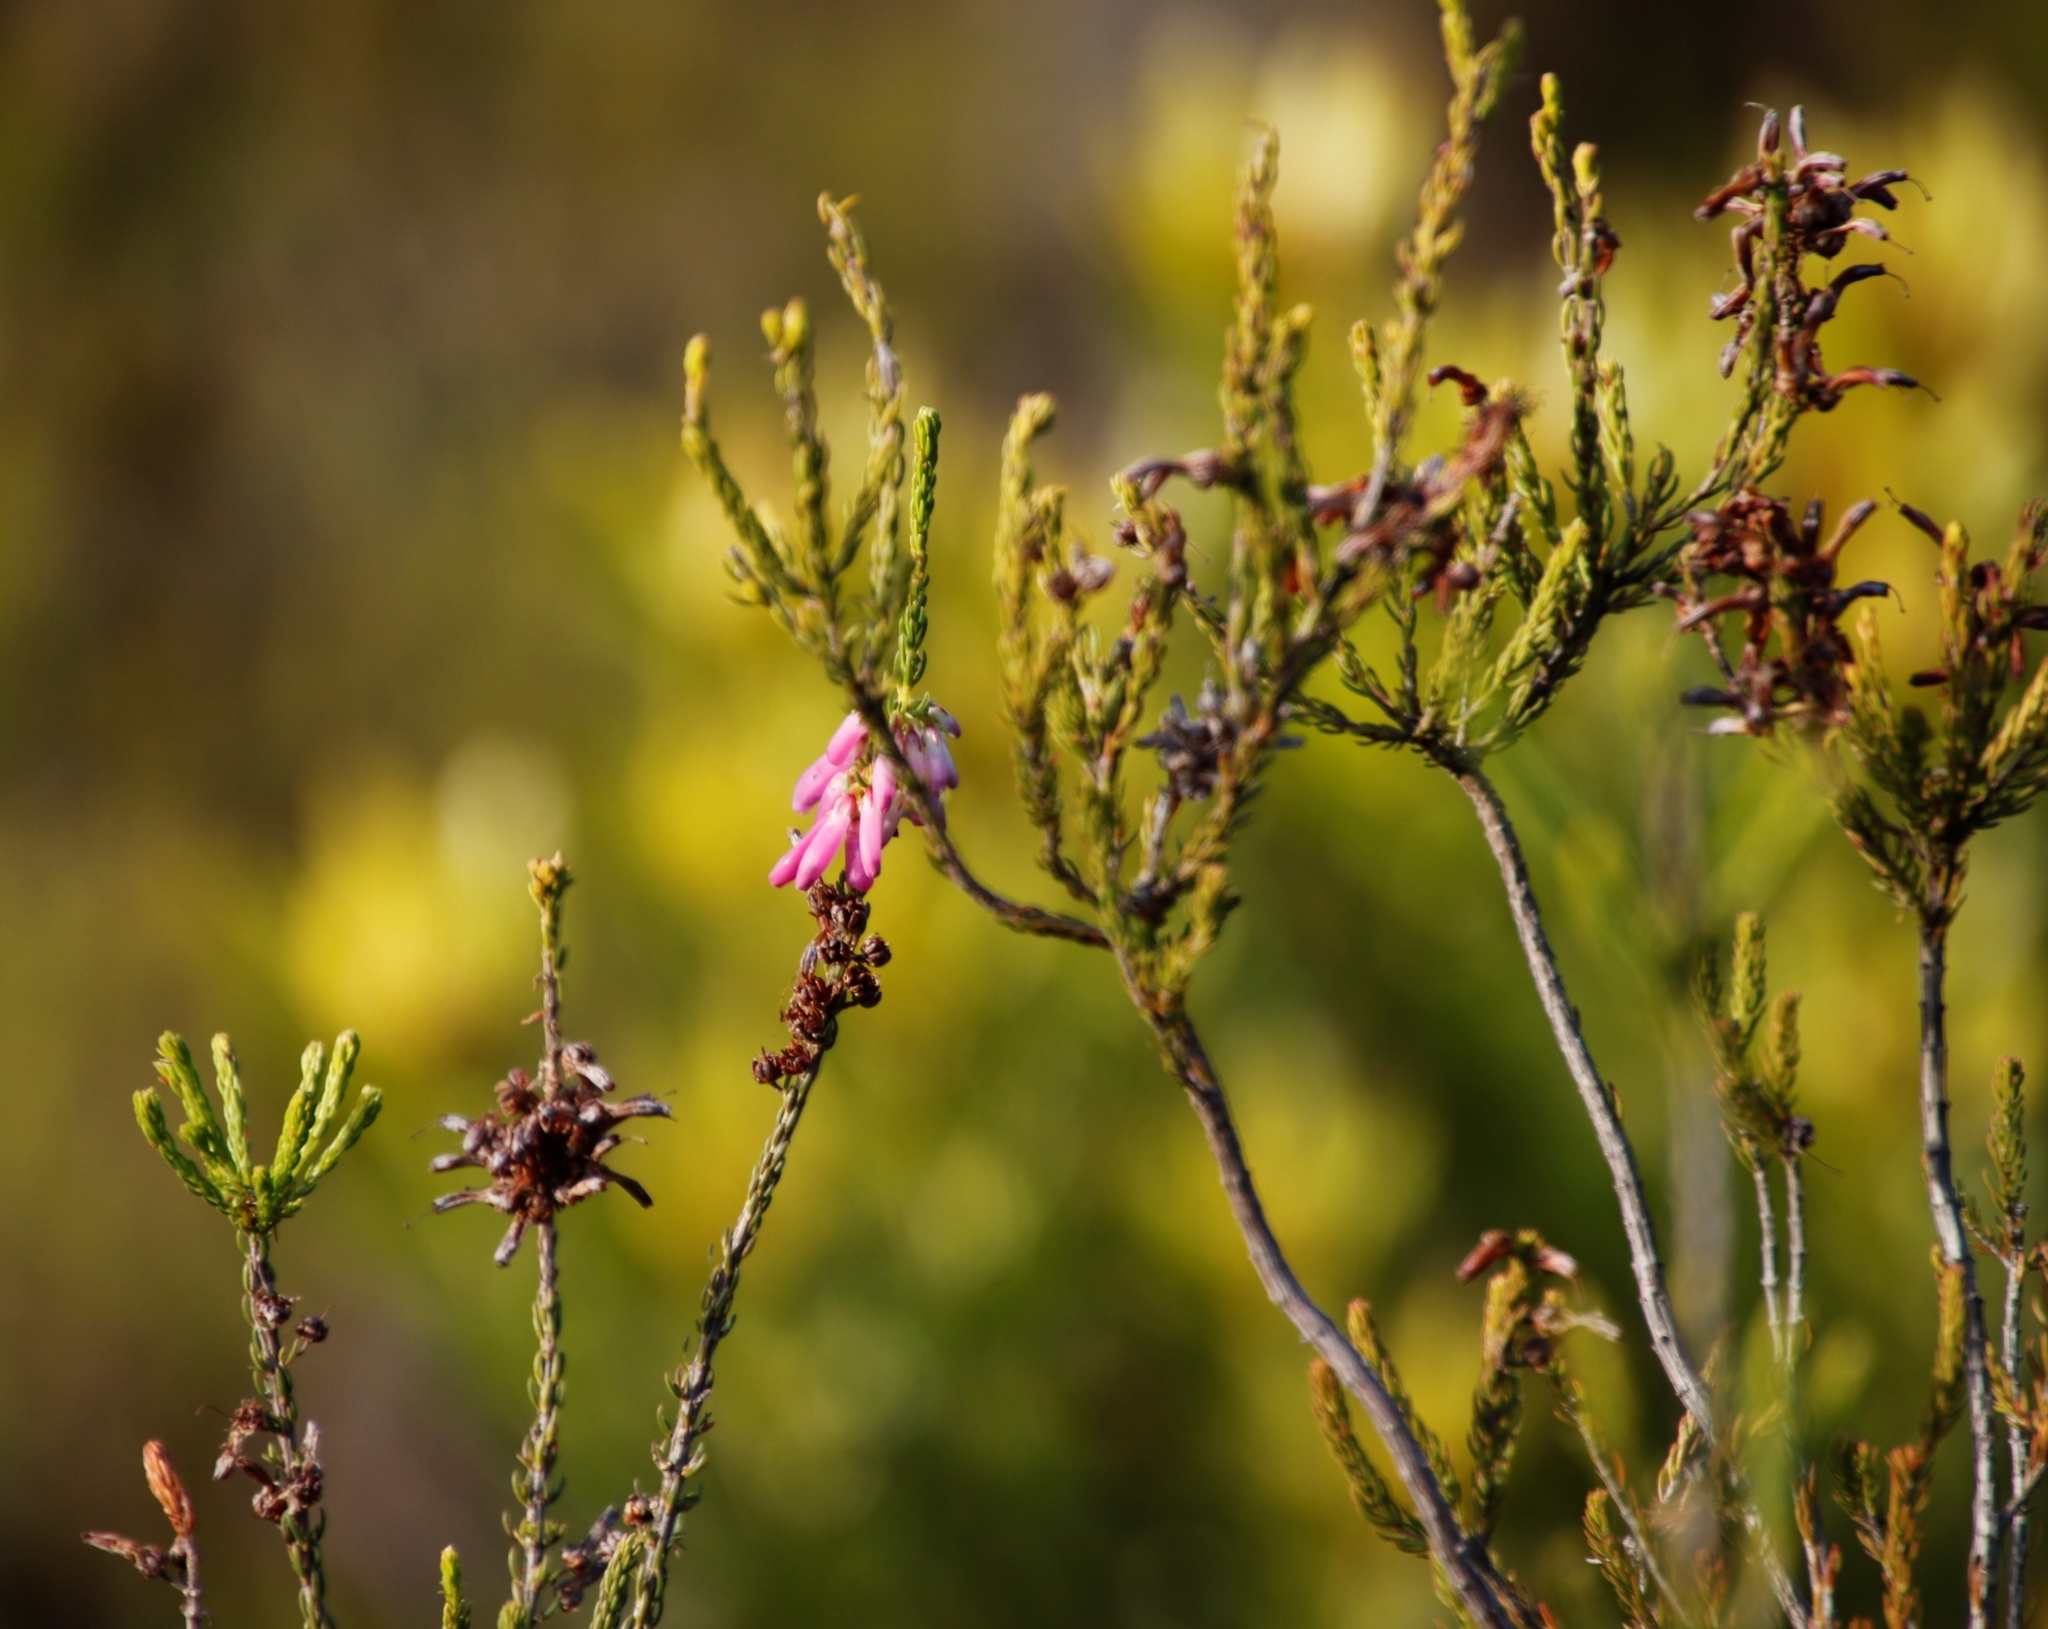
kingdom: Plantae
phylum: Tracheophyta
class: Magnoliopsida
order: Ericales
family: Ericaceae
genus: Erica
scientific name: Erica mammosa
